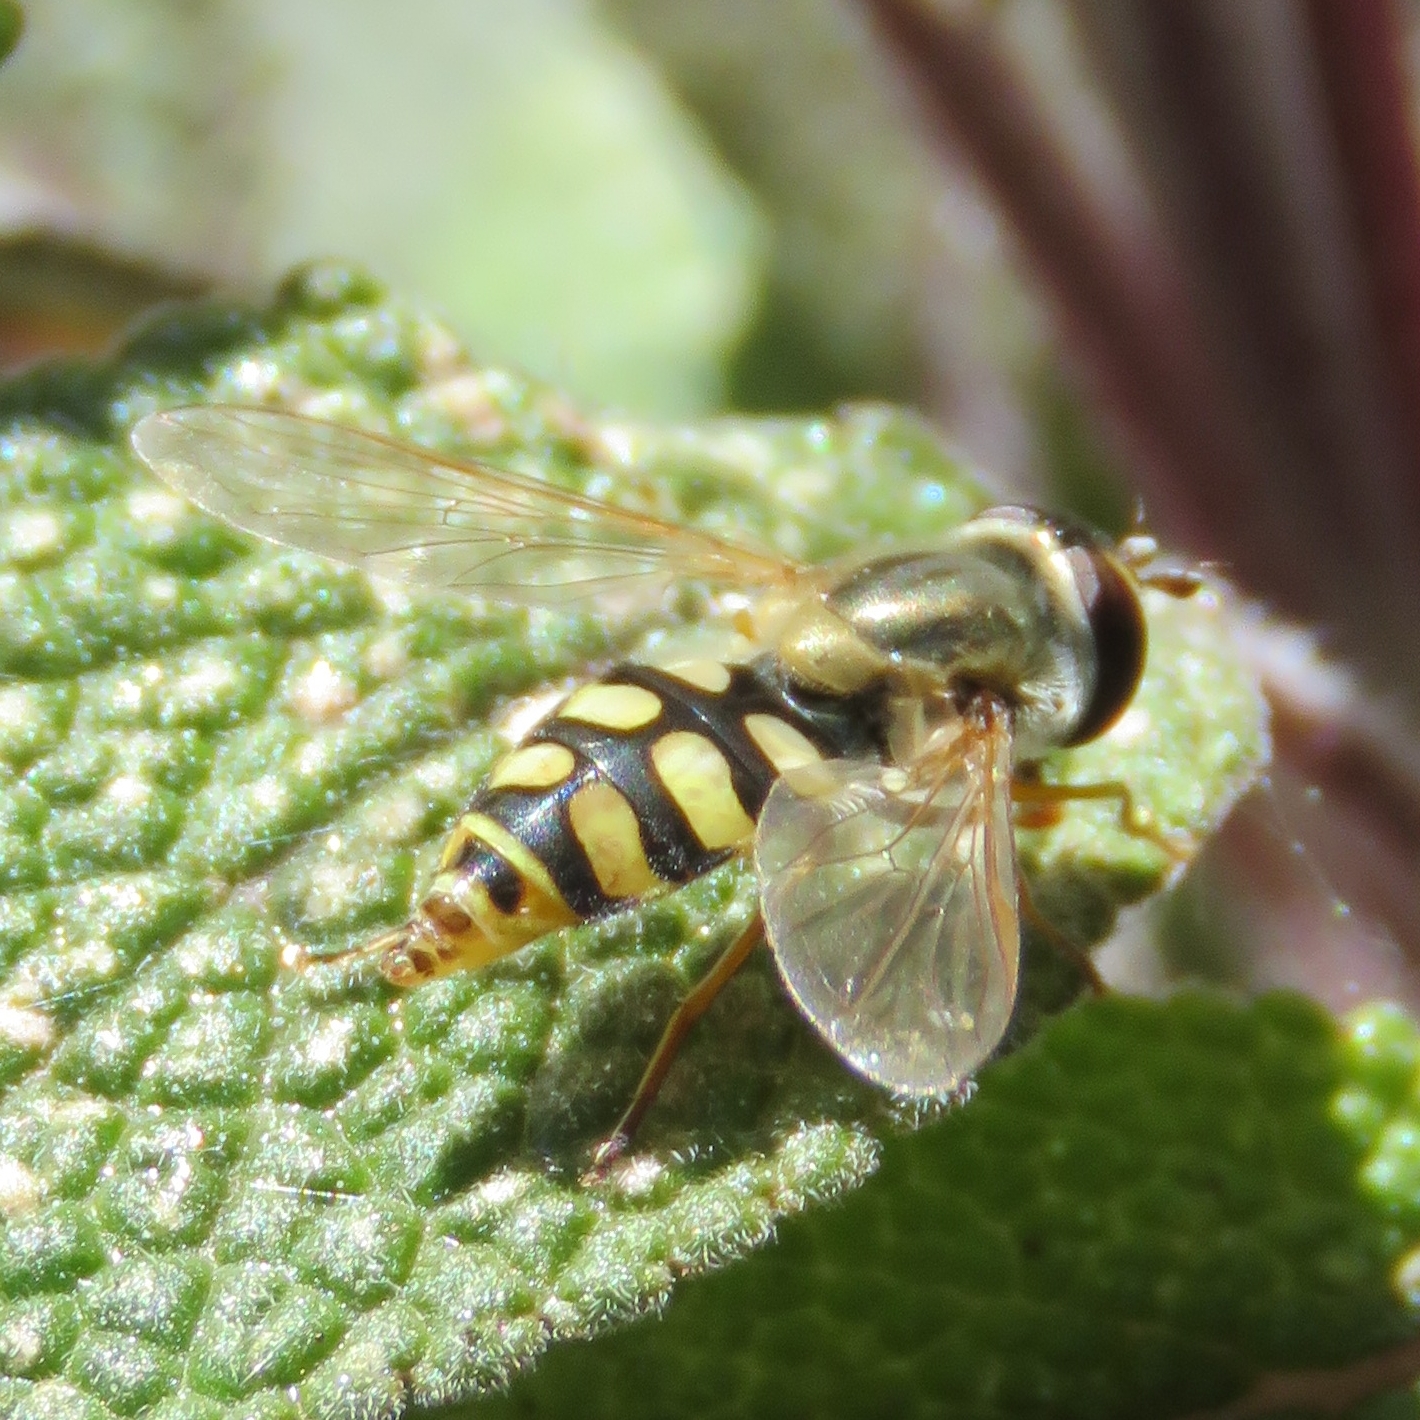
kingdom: Animalia
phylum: Arthropoda
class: Insecta
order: Diptera
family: Syrphidae
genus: Eupeodes
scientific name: Eupeodes corollae
